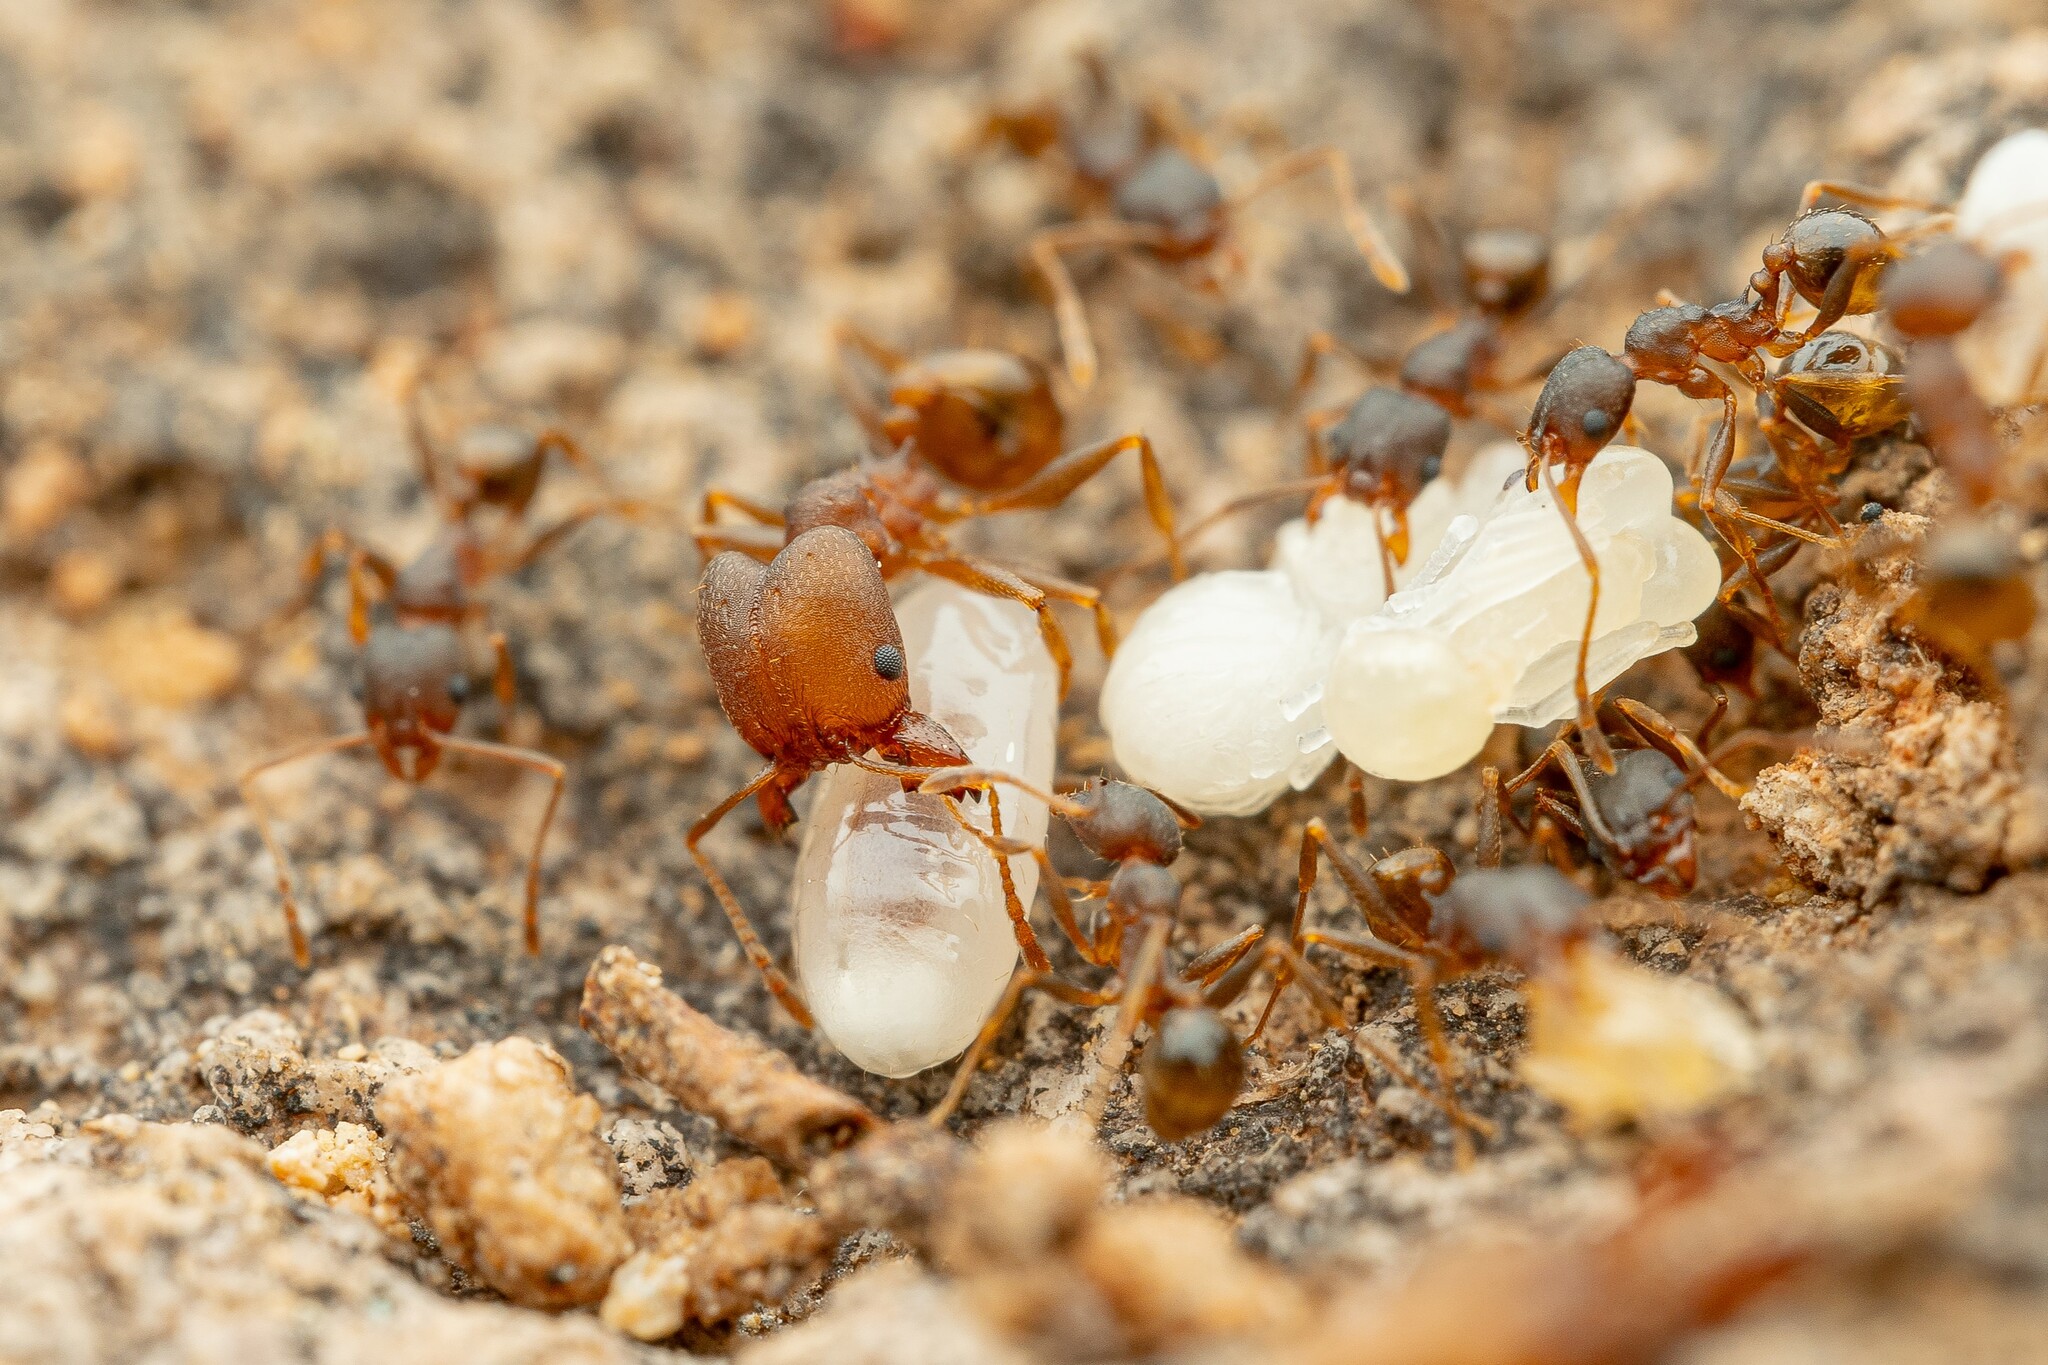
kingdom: Animalia
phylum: Arthropoda
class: Insecta
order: Hymenoptera
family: Formicidae
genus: Pheidole
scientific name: Pheidole
